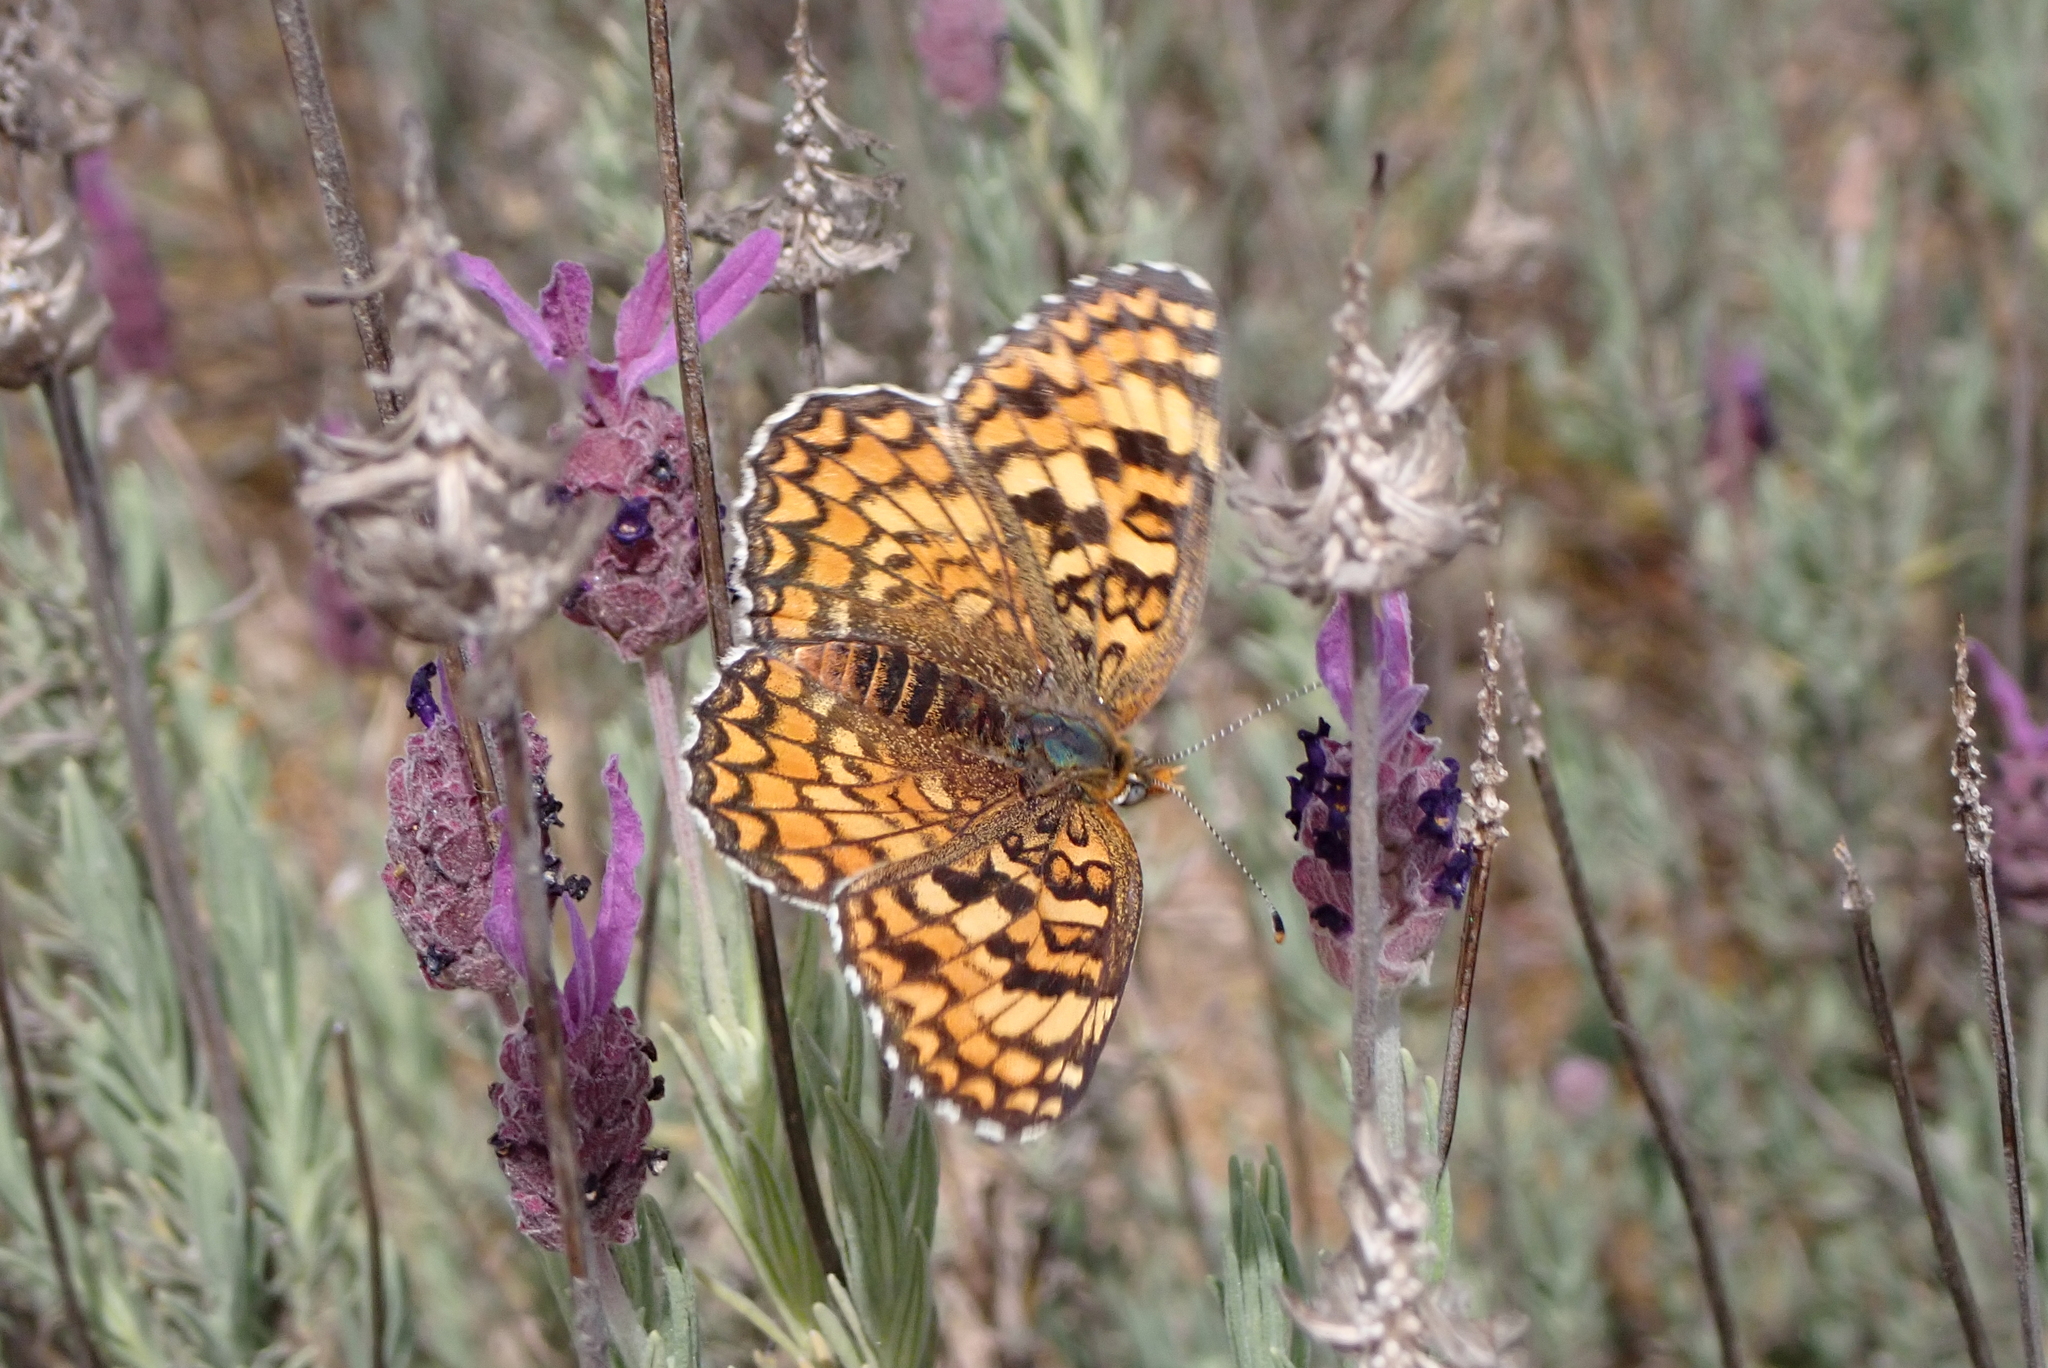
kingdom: Animalia
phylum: Arthropoda
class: Insecta
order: Lepidoptera
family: Nymphalidae
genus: Melitaea
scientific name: Melitaea phoebe
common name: Knapweed fritillary
